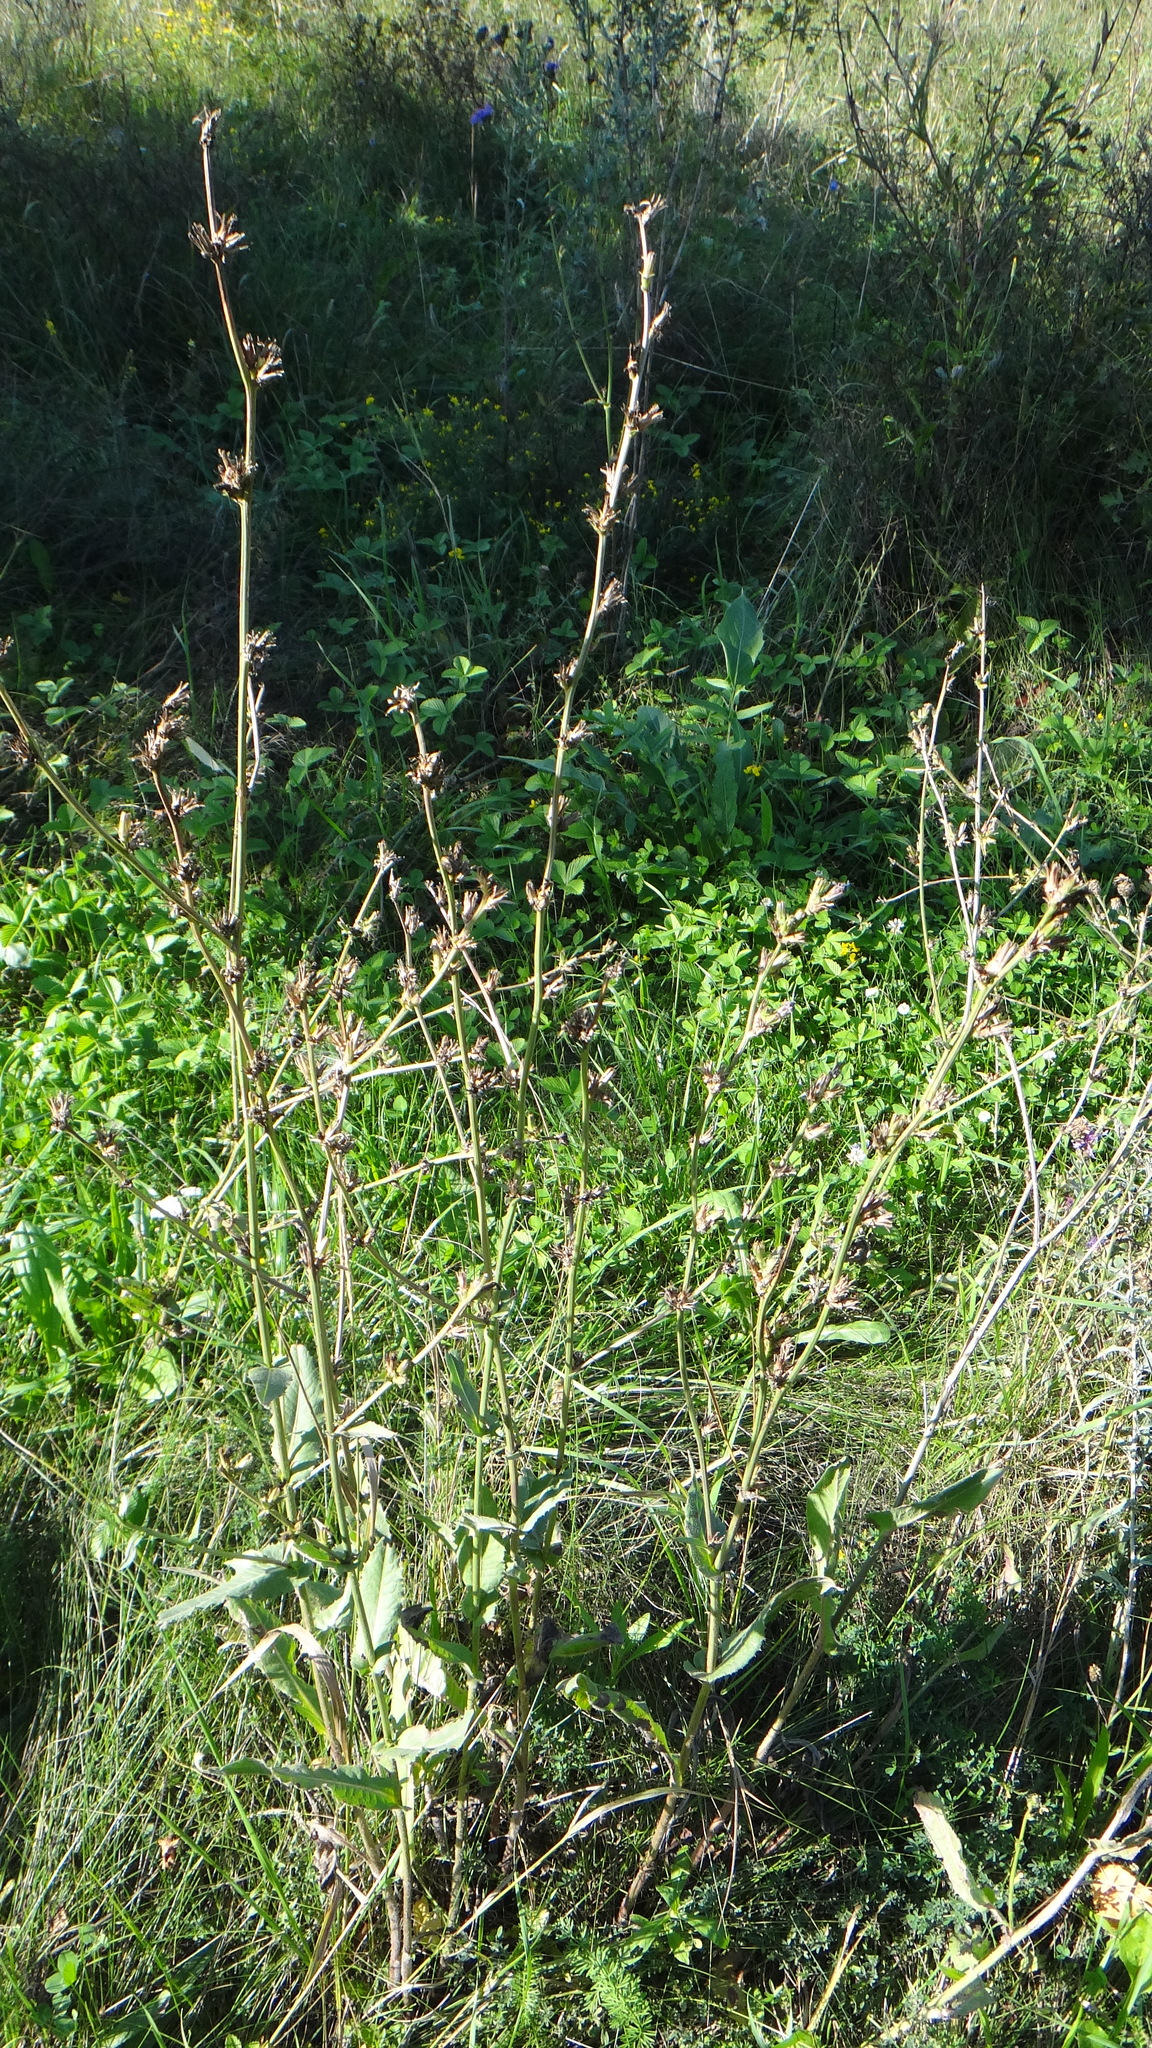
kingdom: Plantae
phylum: Tracheophyta
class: Magnoliopsida
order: Asterales
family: Asteraceae
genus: Cichorium
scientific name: Cichorium intybus
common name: Chicory
